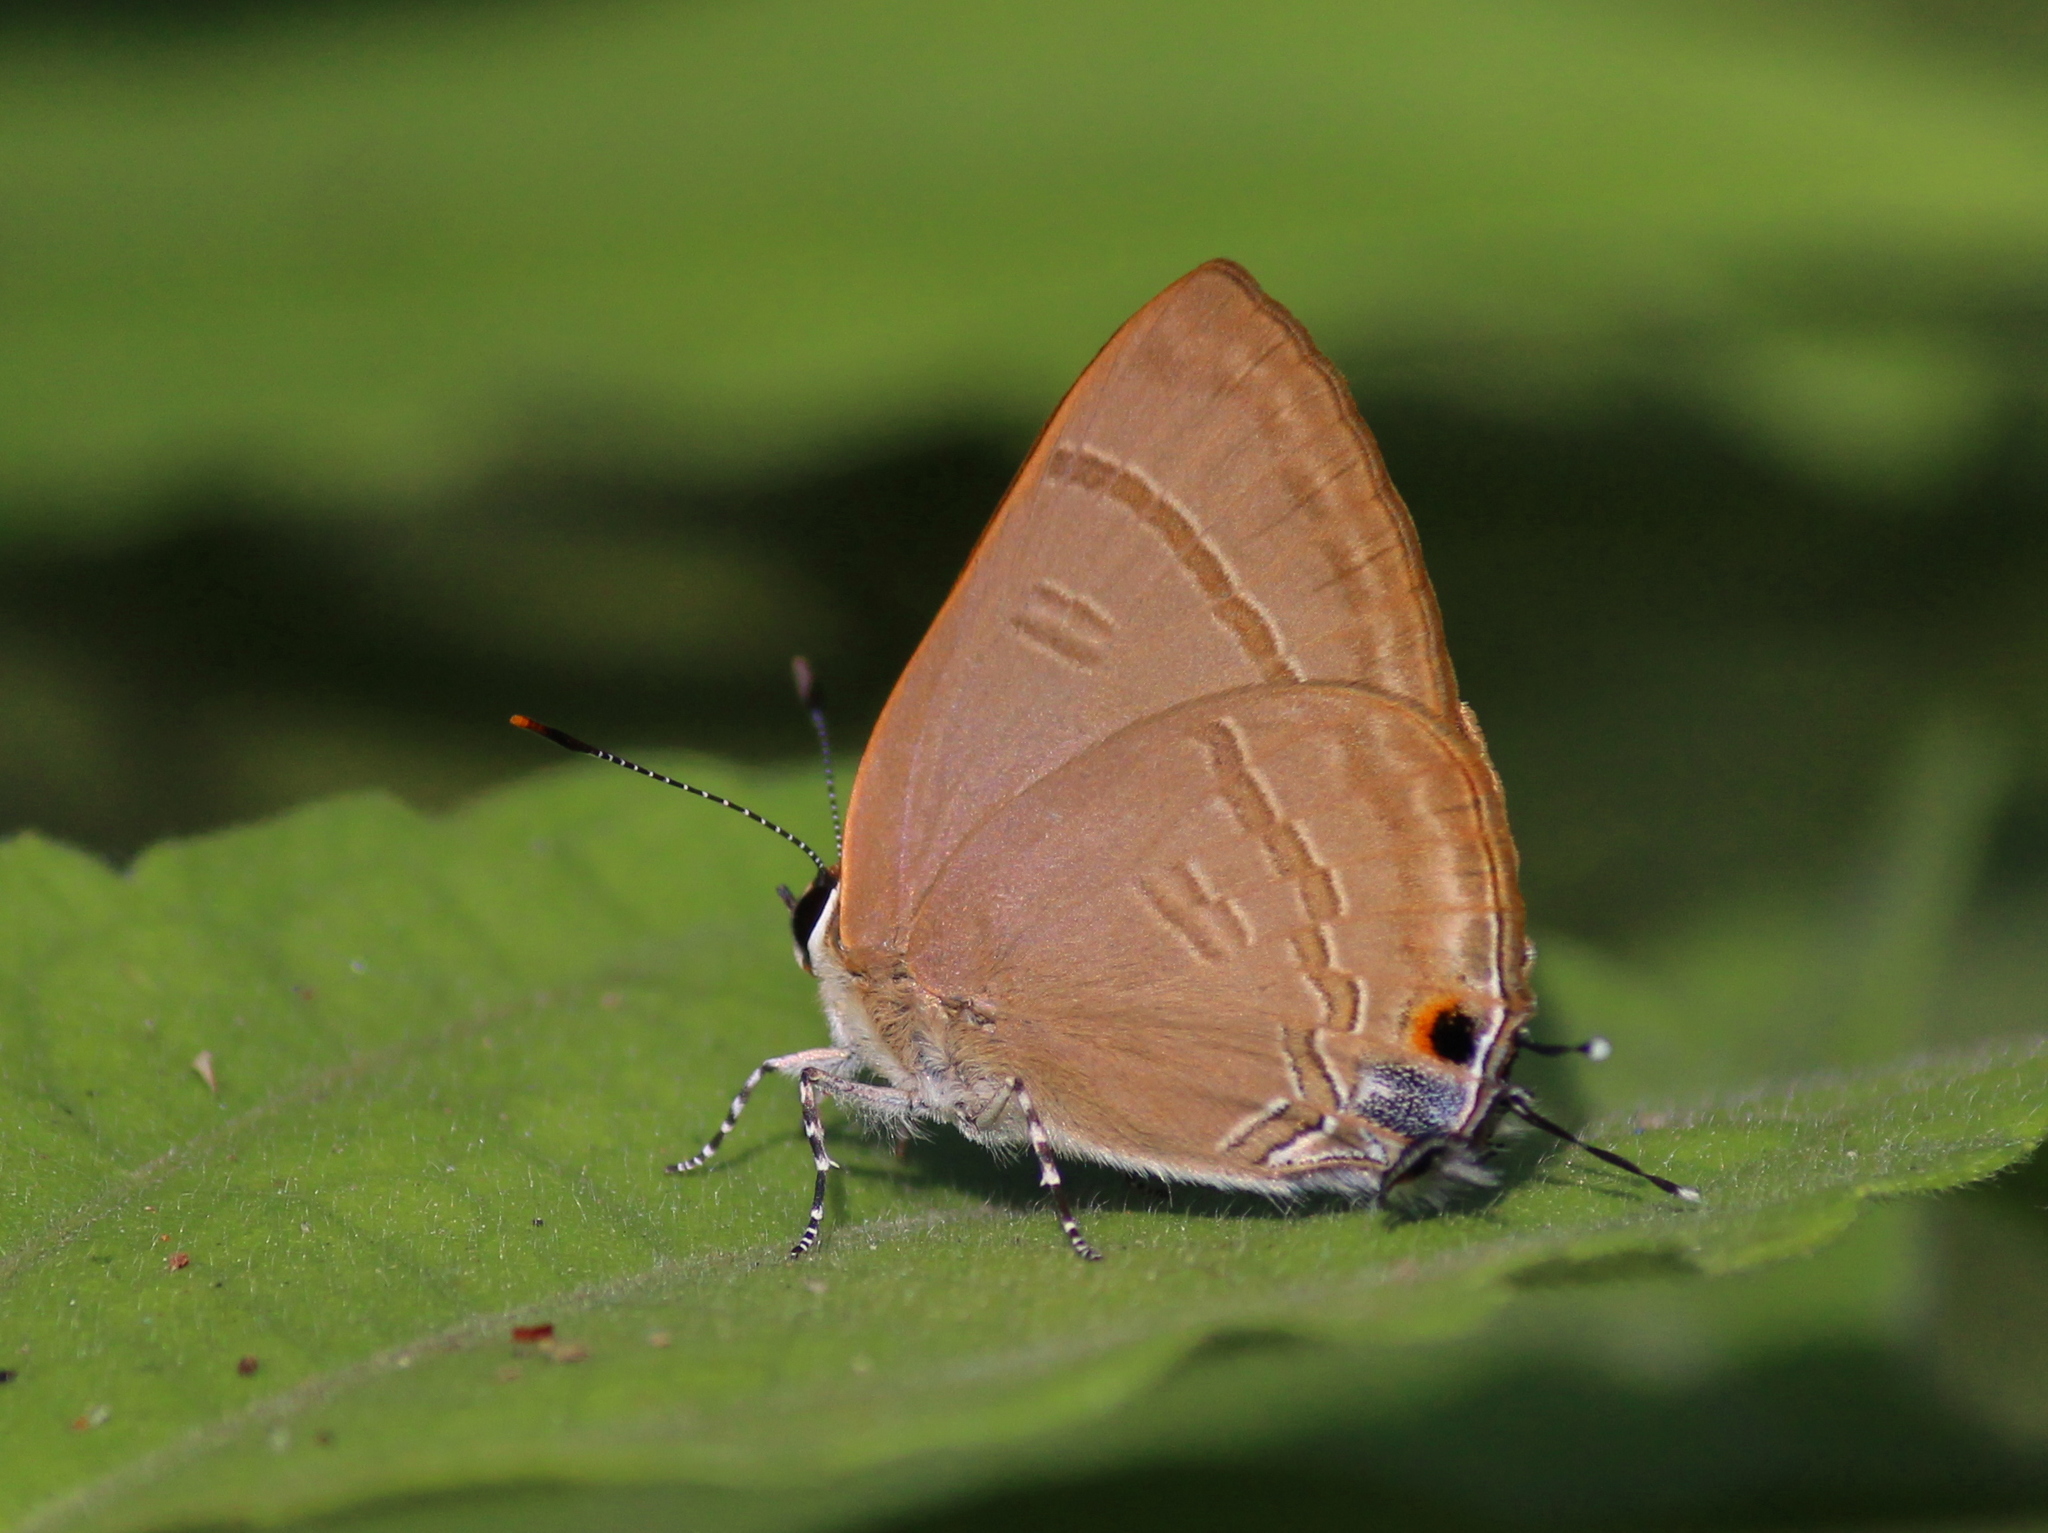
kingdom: Animalia
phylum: Arthropoda
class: Insecta
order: Lepidoptera
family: Lycaenidae
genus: Rapala
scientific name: Rapala manea
